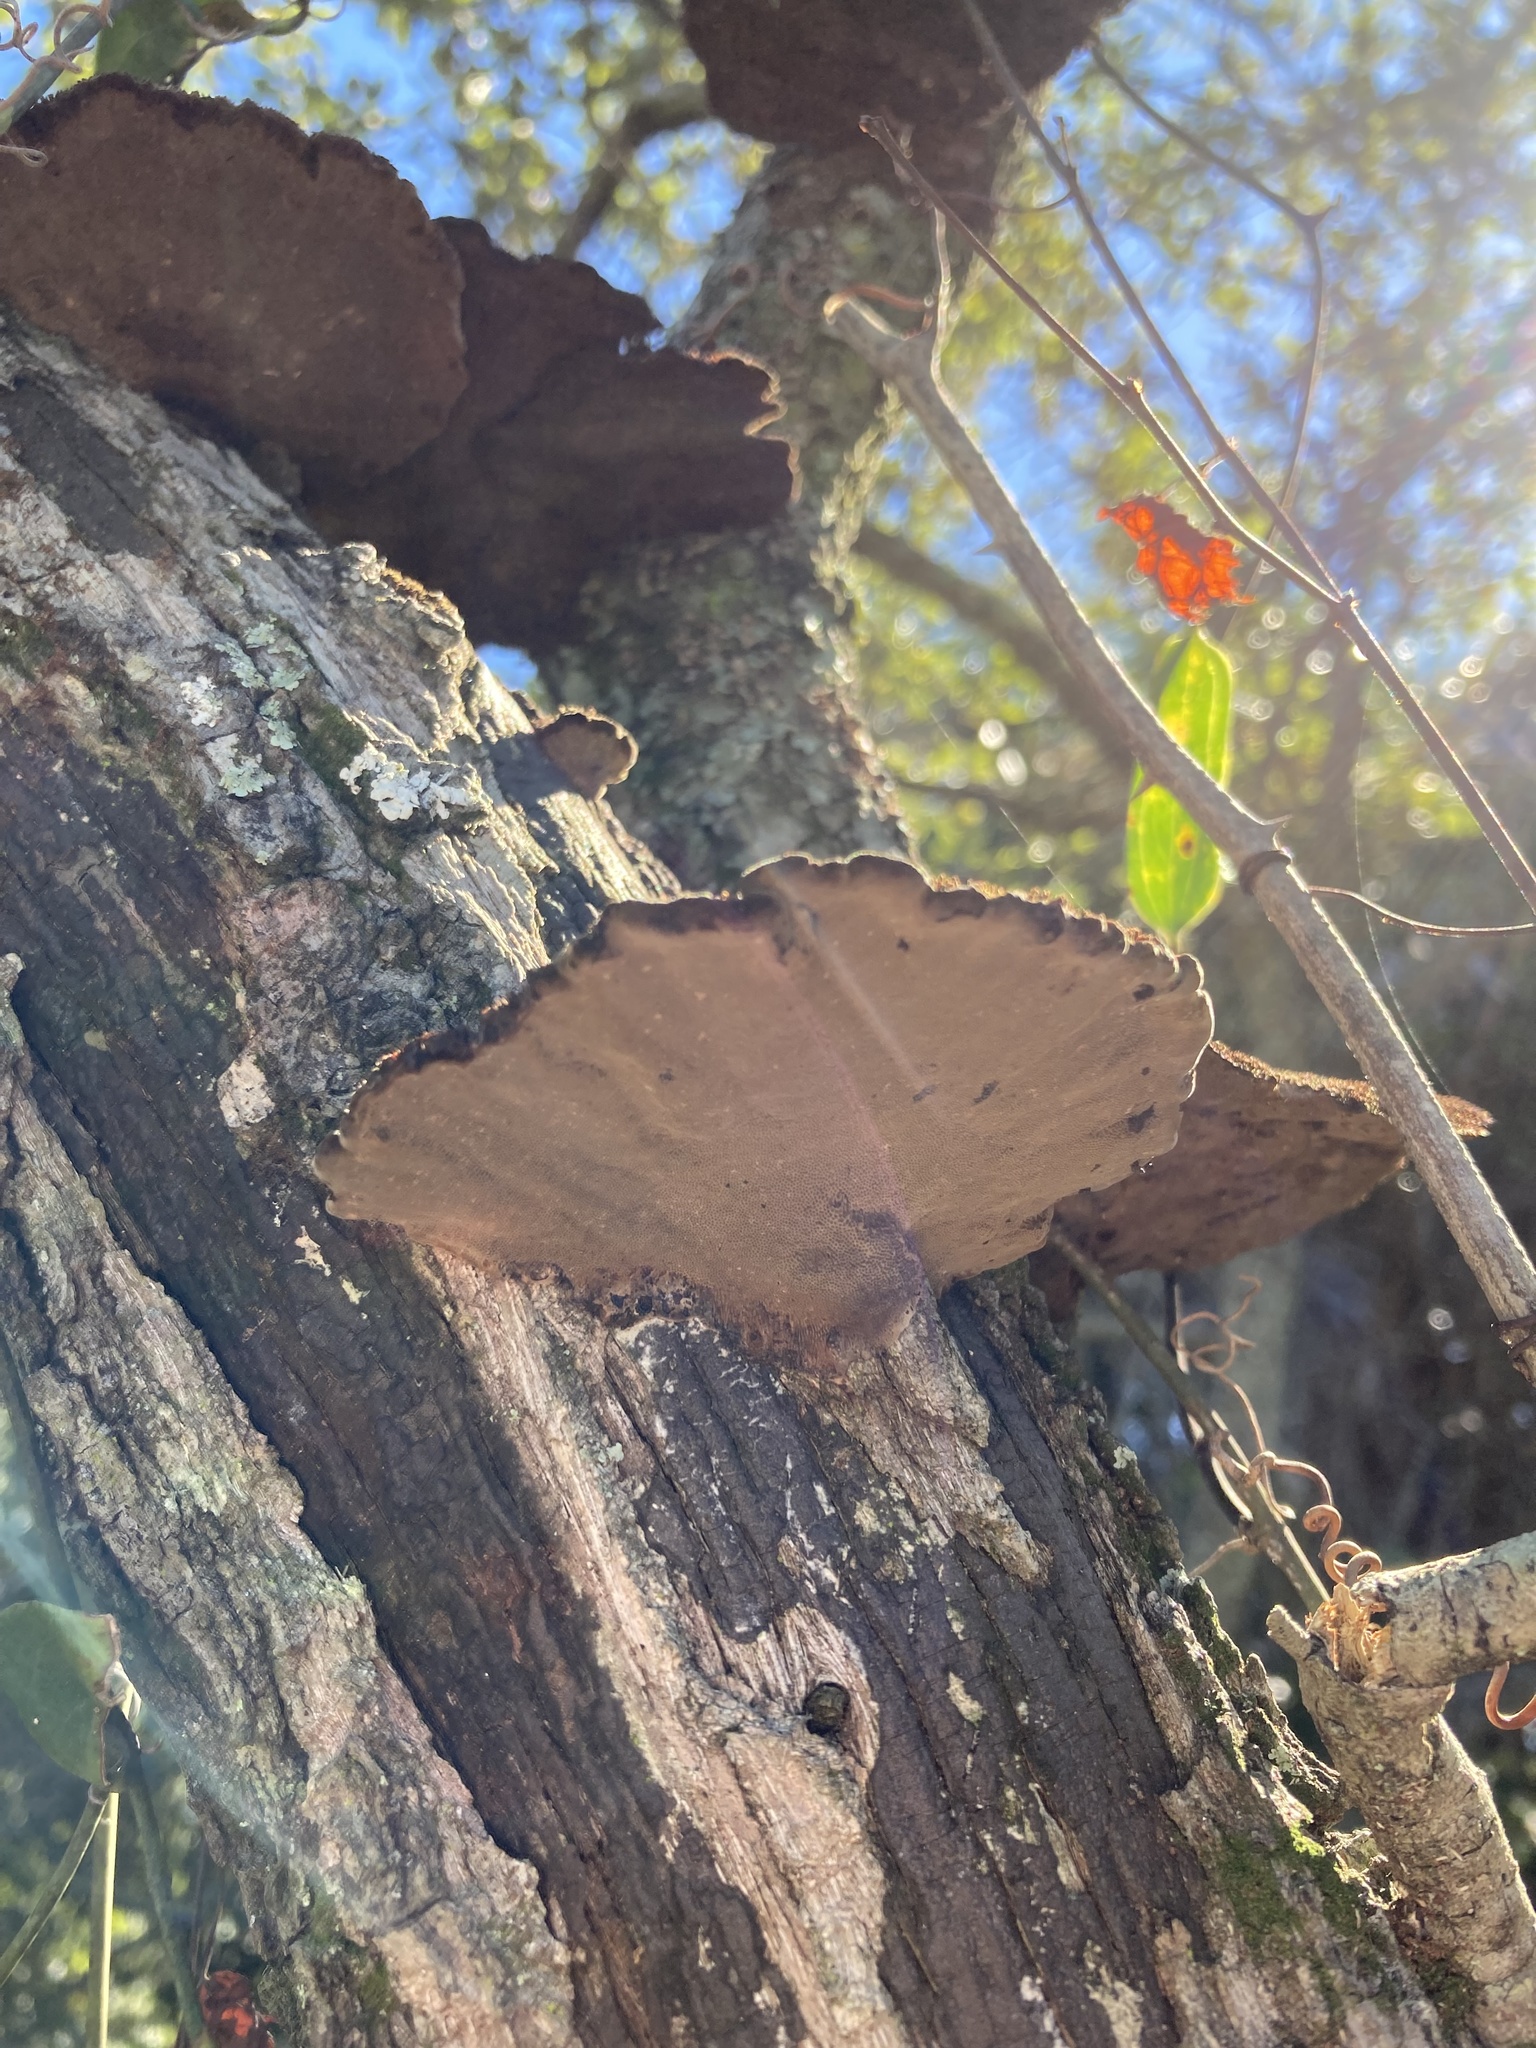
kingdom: Fungi
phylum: Basidiomycota
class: Agaricomycetes
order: Polyporales
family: Cerrenaceae
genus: Cerrena
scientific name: Cerrena hydnoides
